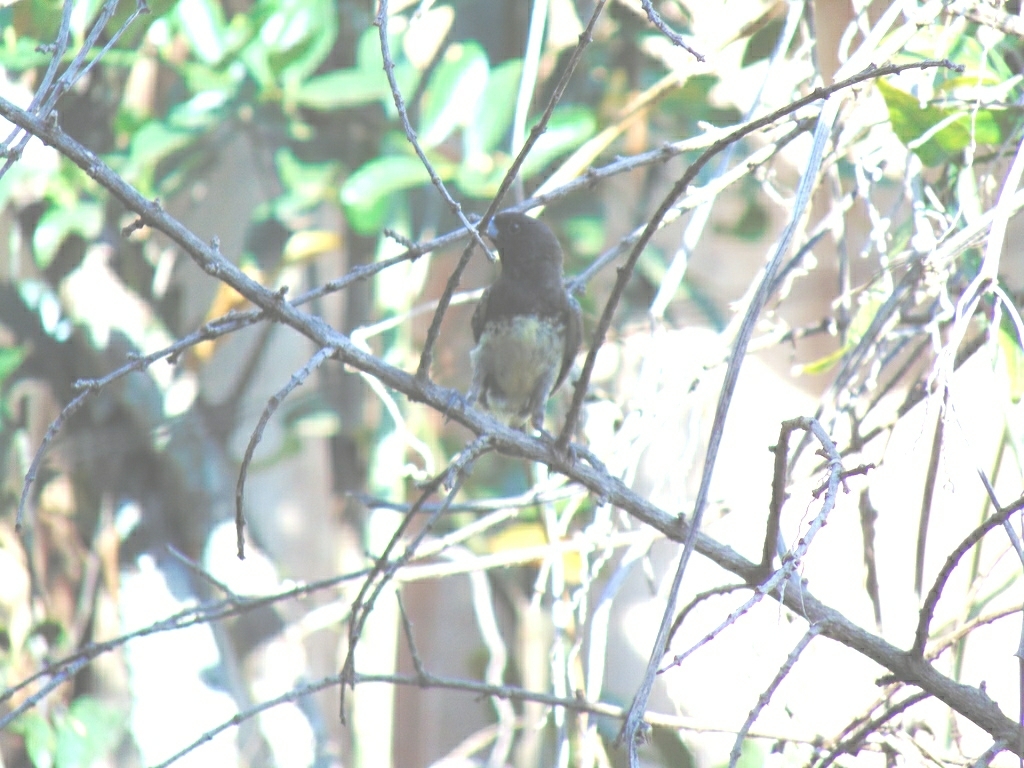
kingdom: Animalia
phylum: Chordata
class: Aves
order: Passeriformes
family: Thraupidae
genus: Sporophila
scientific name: Sporophila nigricollis
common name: Yellow-bellied seedeater
